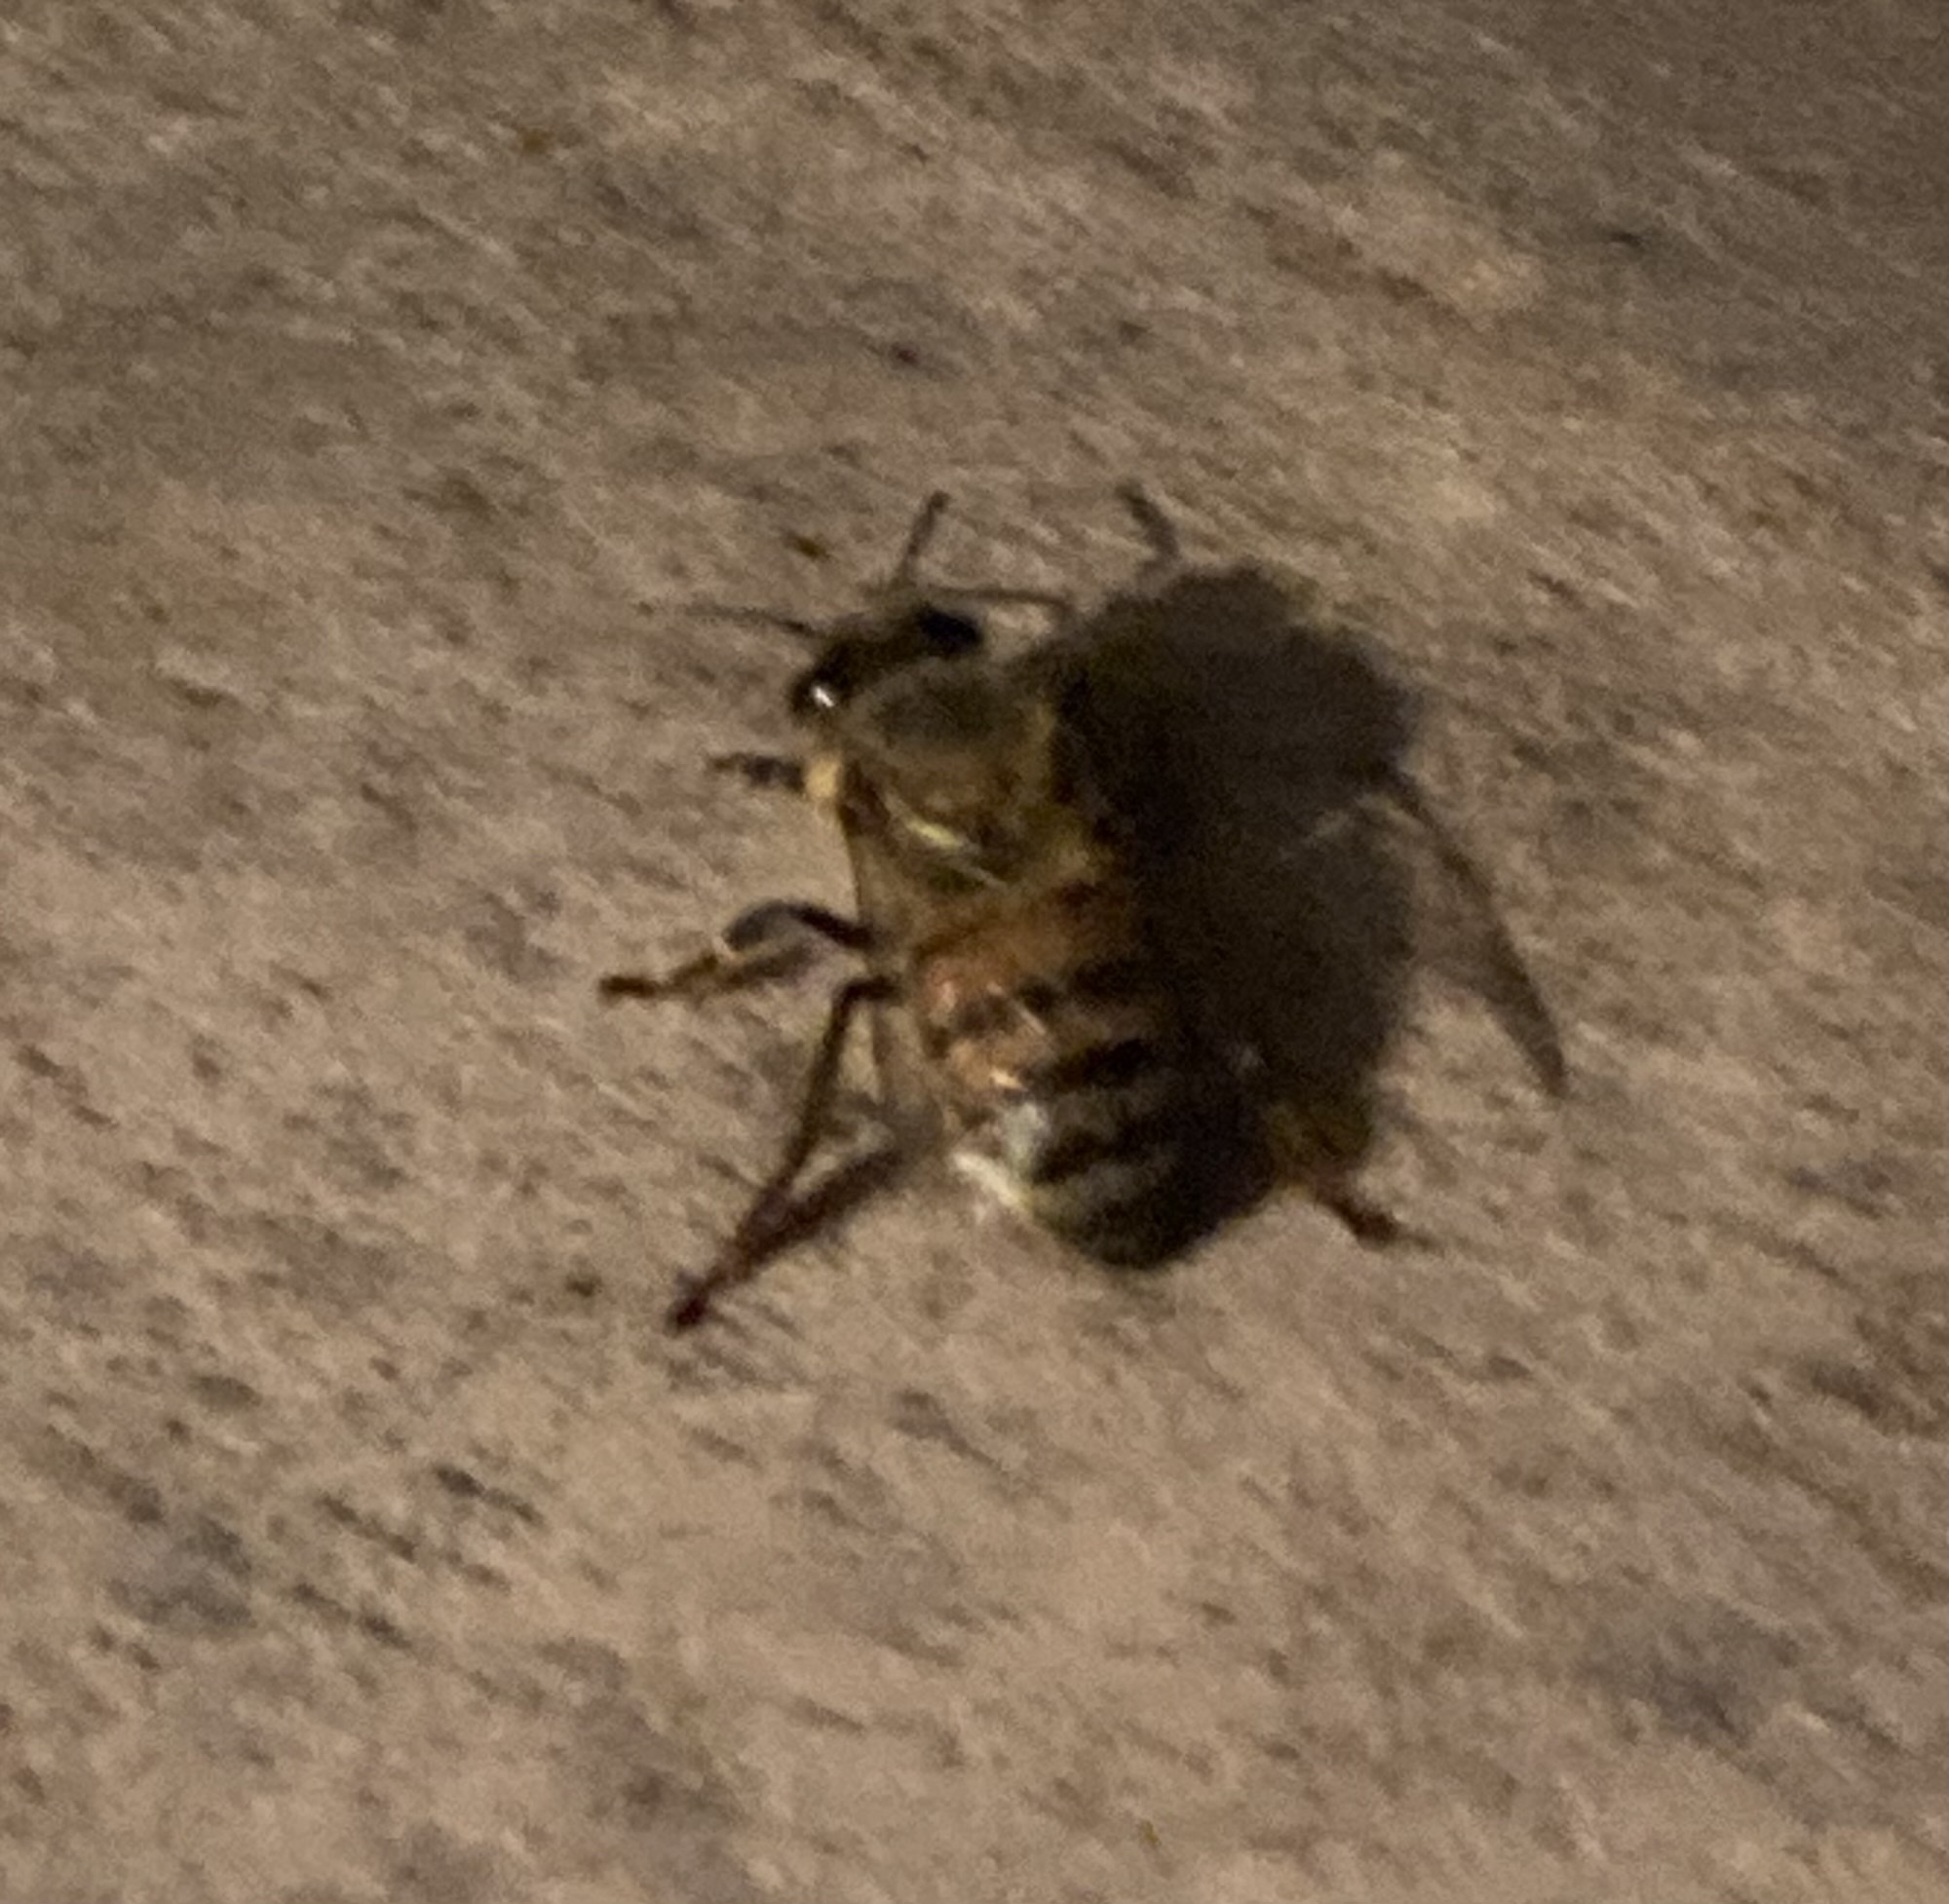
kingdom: Animalia
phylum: Arthropoda
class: Insecta
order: Hymenoptera
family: Apidae
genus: Apis
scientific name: Apis mellifera
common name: Honey bee
